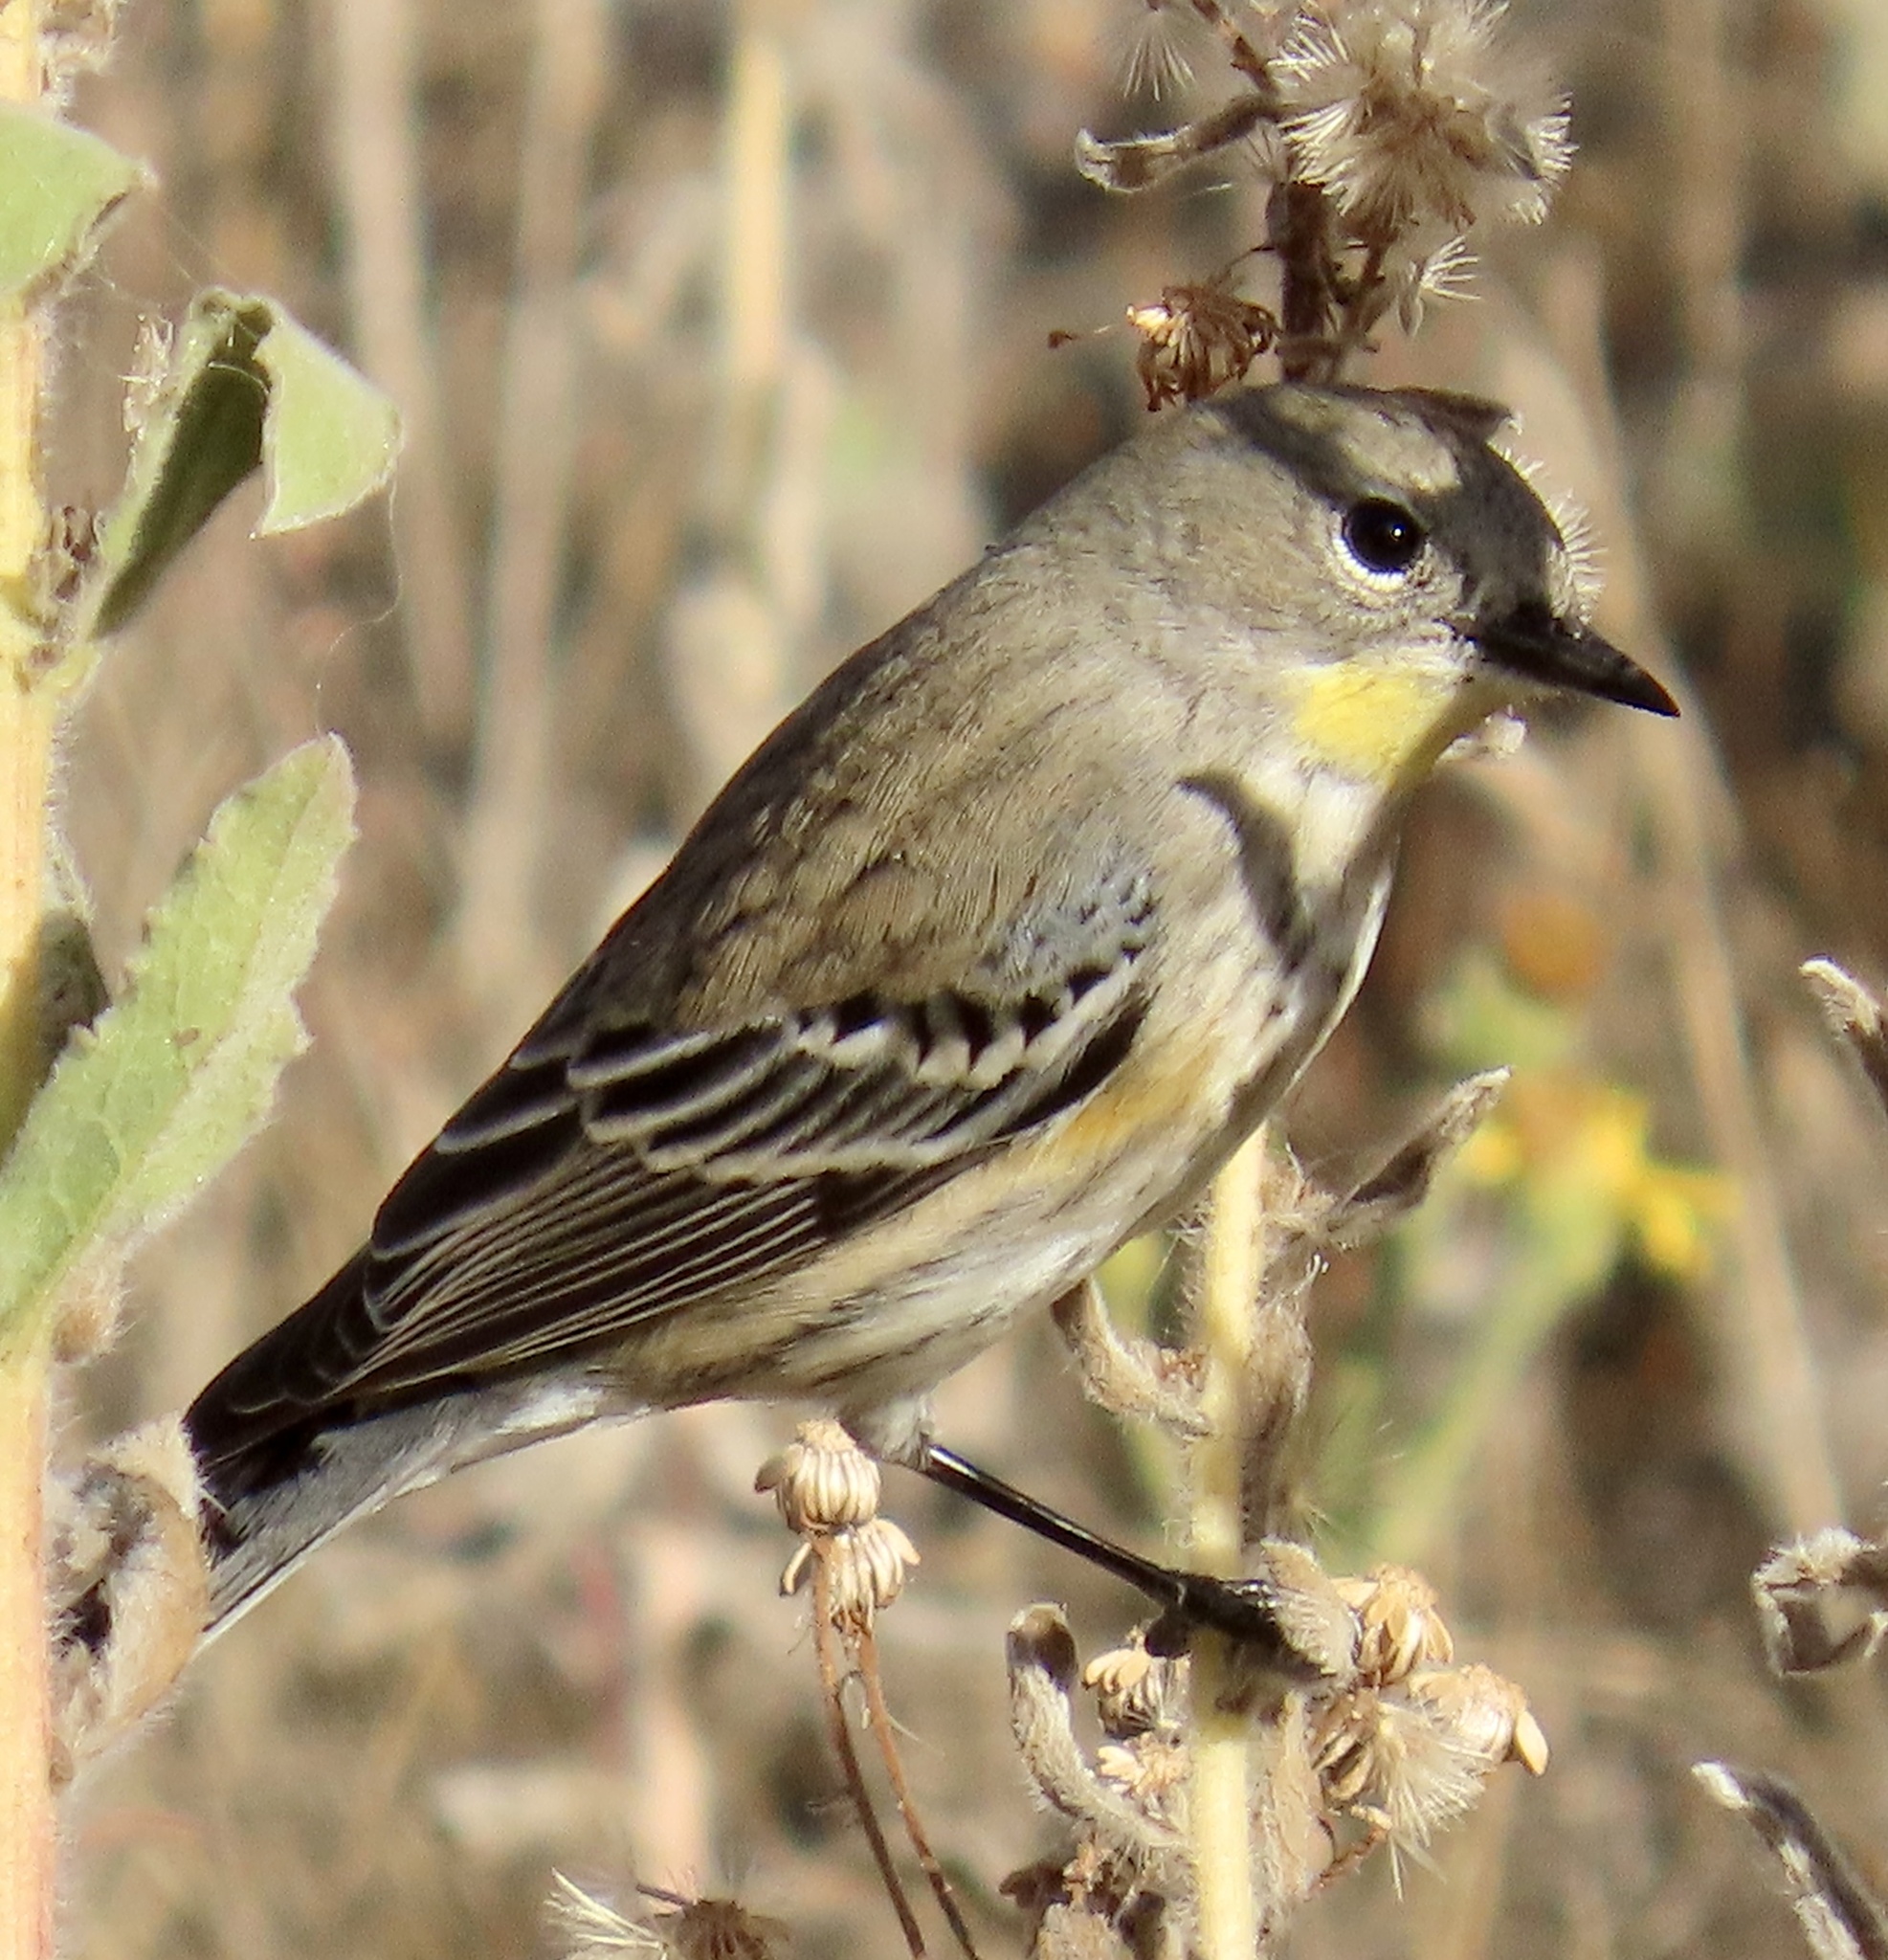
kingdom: Animalia
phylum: Chordata
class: Aves
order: Passeriformes
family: Parulidae
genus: Setophaga
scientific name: Setophaga coronata
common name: Myrtle warbler
